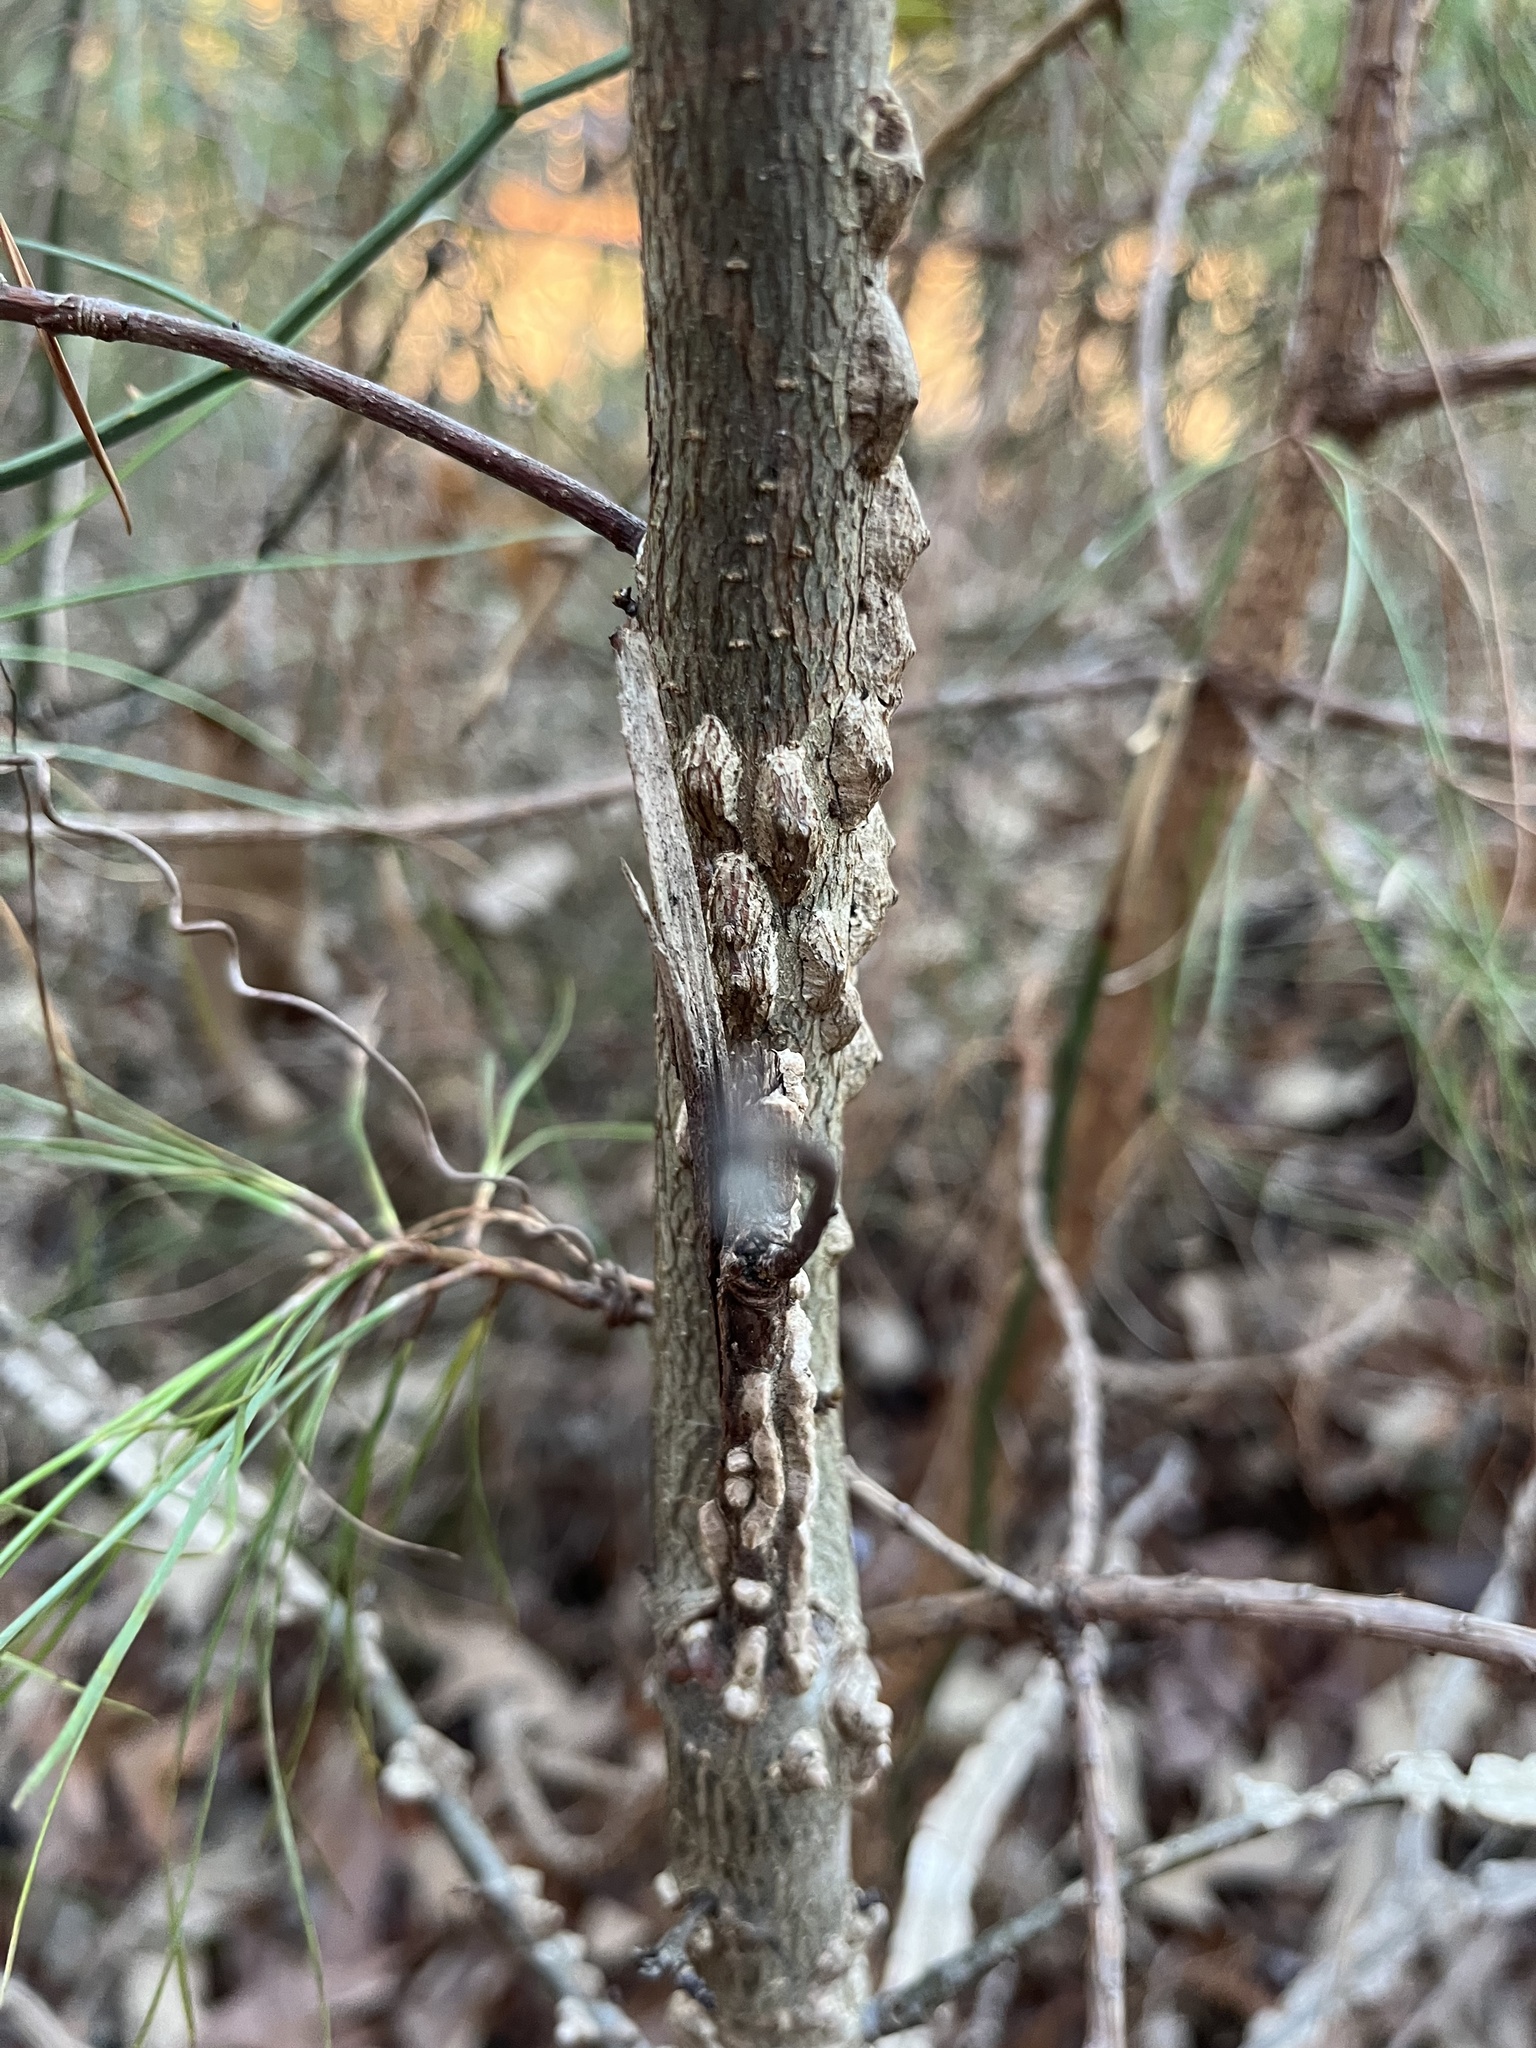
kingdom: Plantae
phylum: Tracheophyta
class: Magnoliopsida
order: Saxifragales
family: Altingiaceae
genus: Liquidambar
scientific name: Liquidambar styraciflua
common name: Sweet gum
